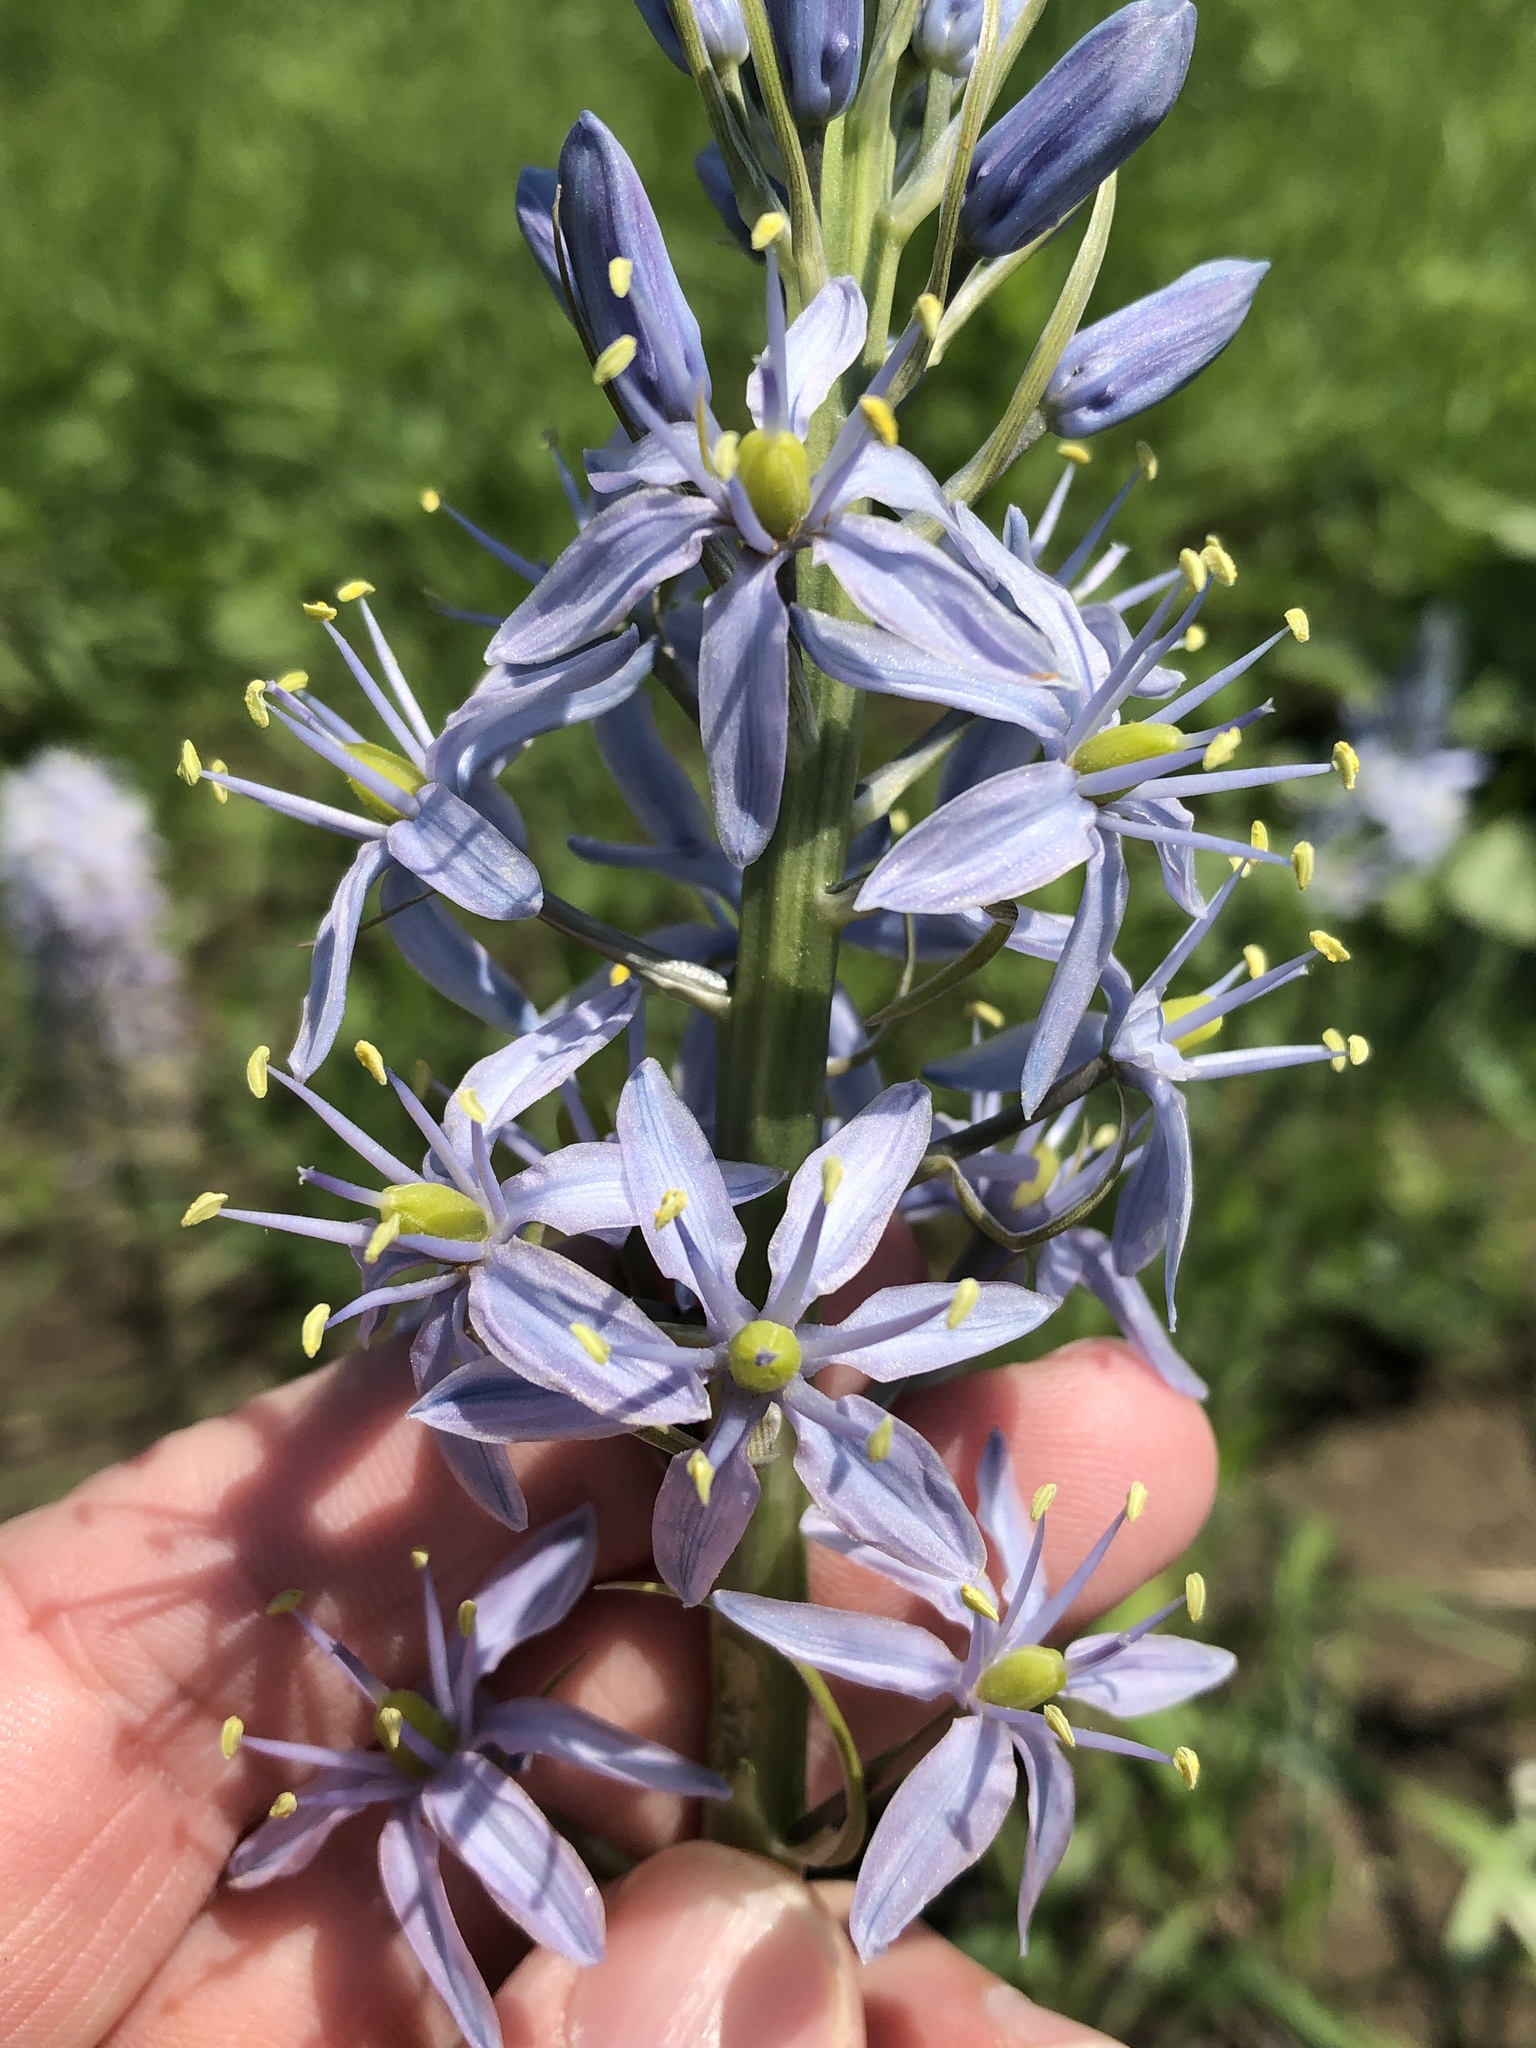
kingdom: Plantae
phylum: Tracheophyta
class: Liliopsida
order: Asparagales
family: Asparagaceae
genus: Camassia
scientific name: Camassia scilloides
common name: Wild hyacinth
